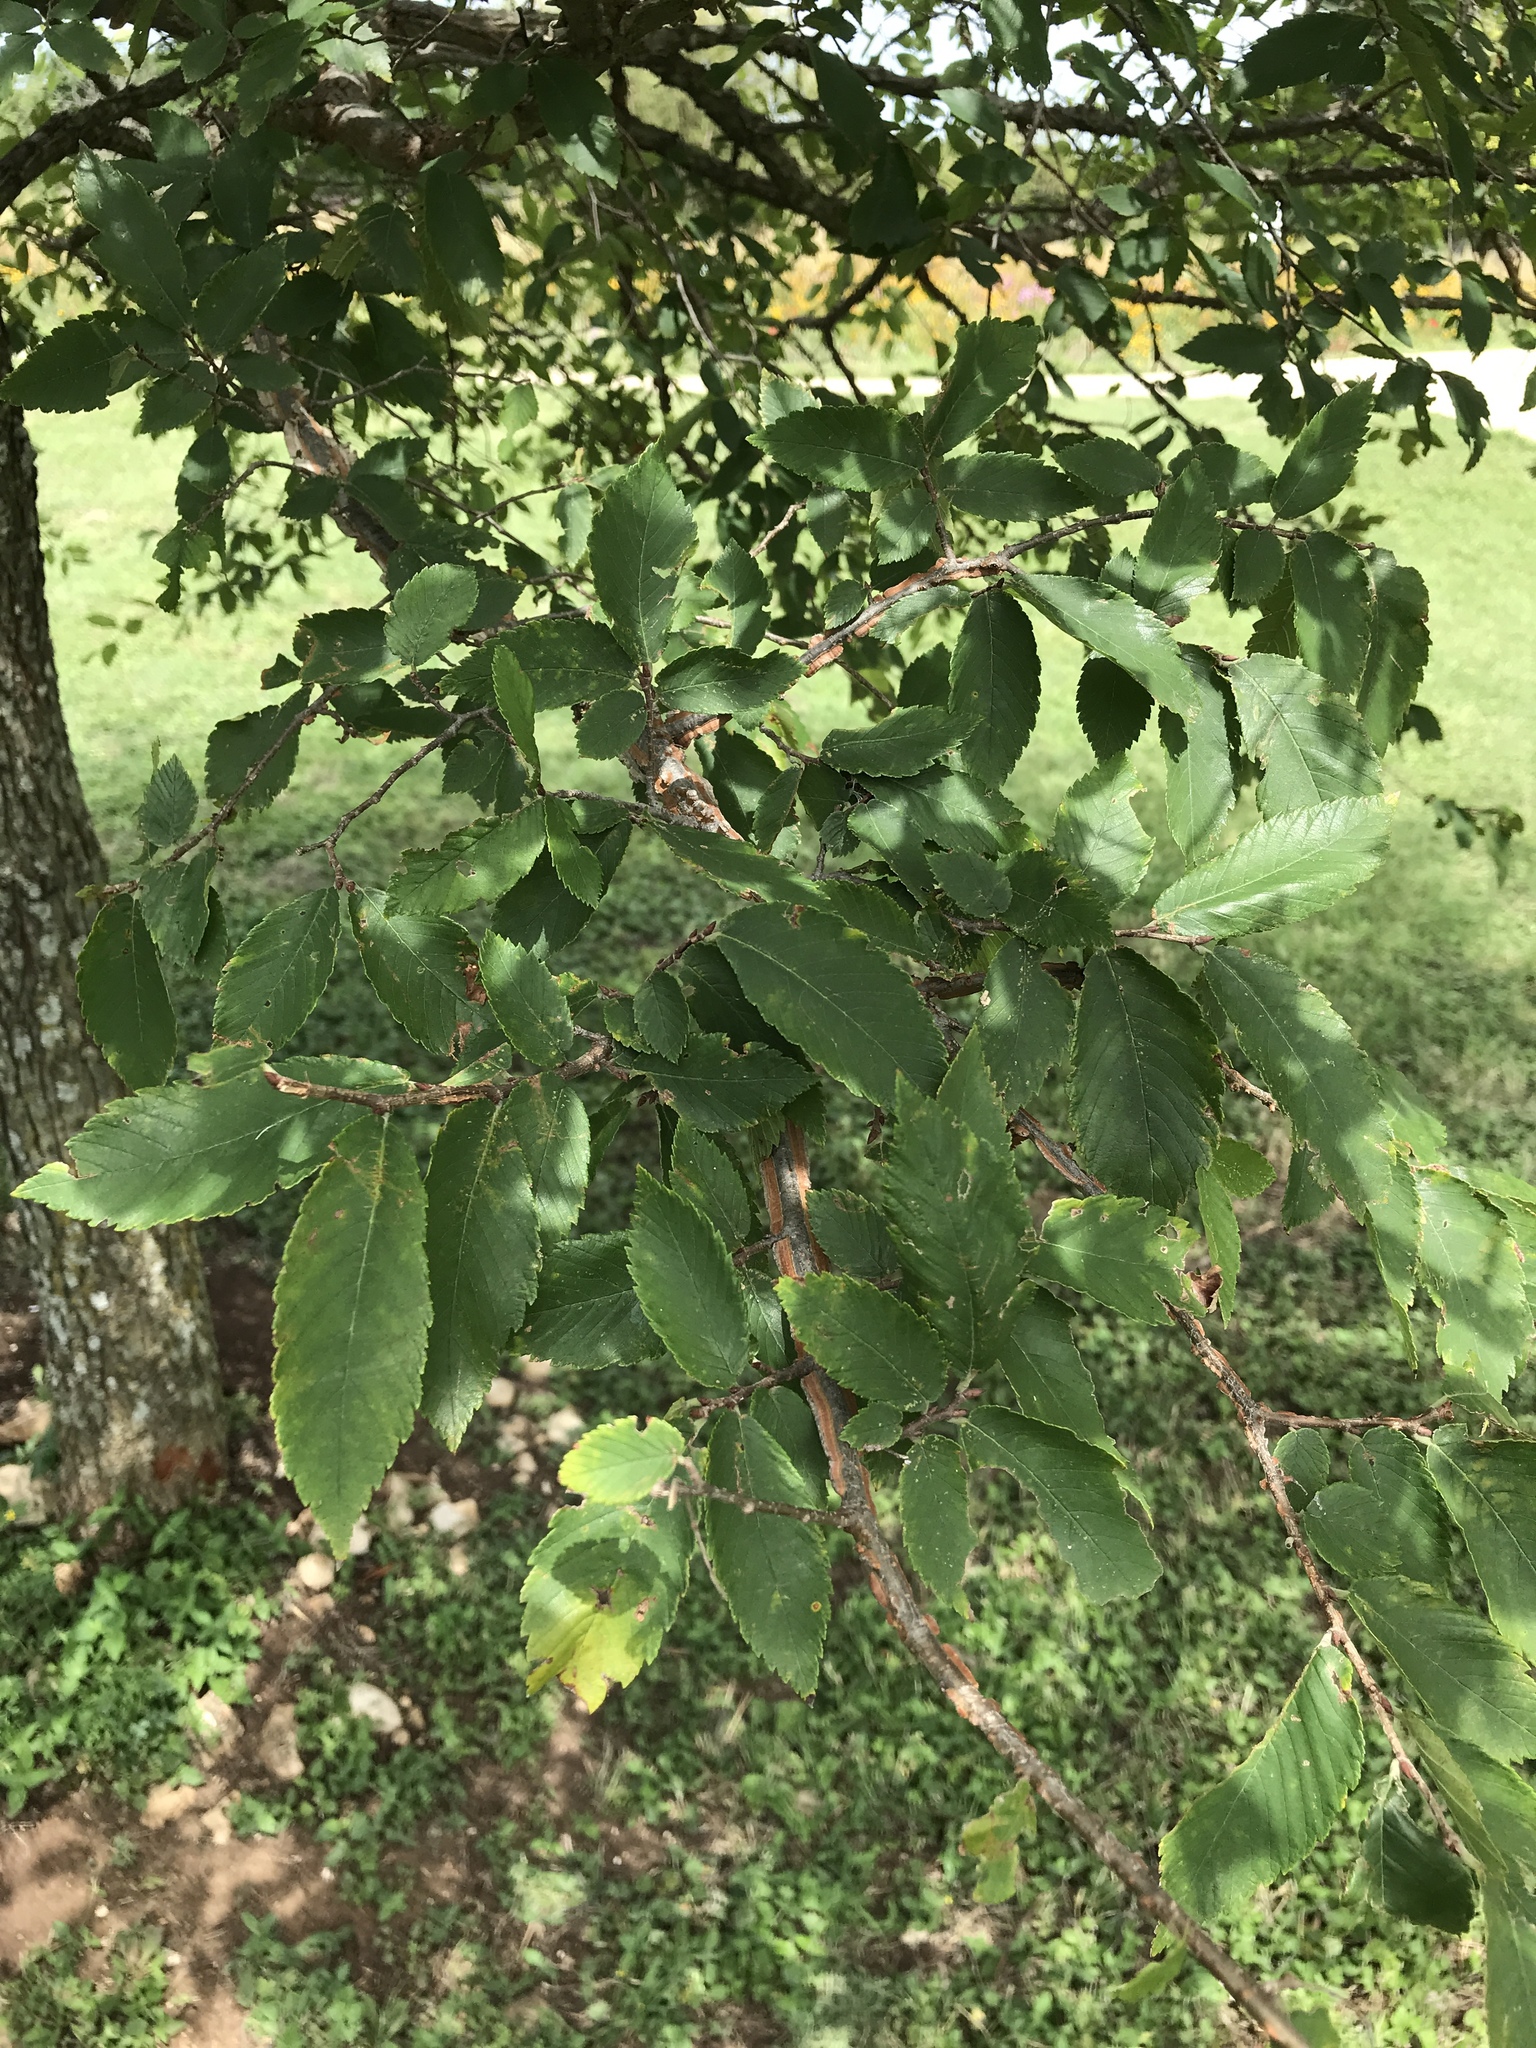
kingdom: Plantae
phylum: Tracheophyta
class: Magnoliopsida
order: Rosales
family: Ulmaceae
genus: Ulmus
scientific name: Ulmus alata
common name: Winged elm
